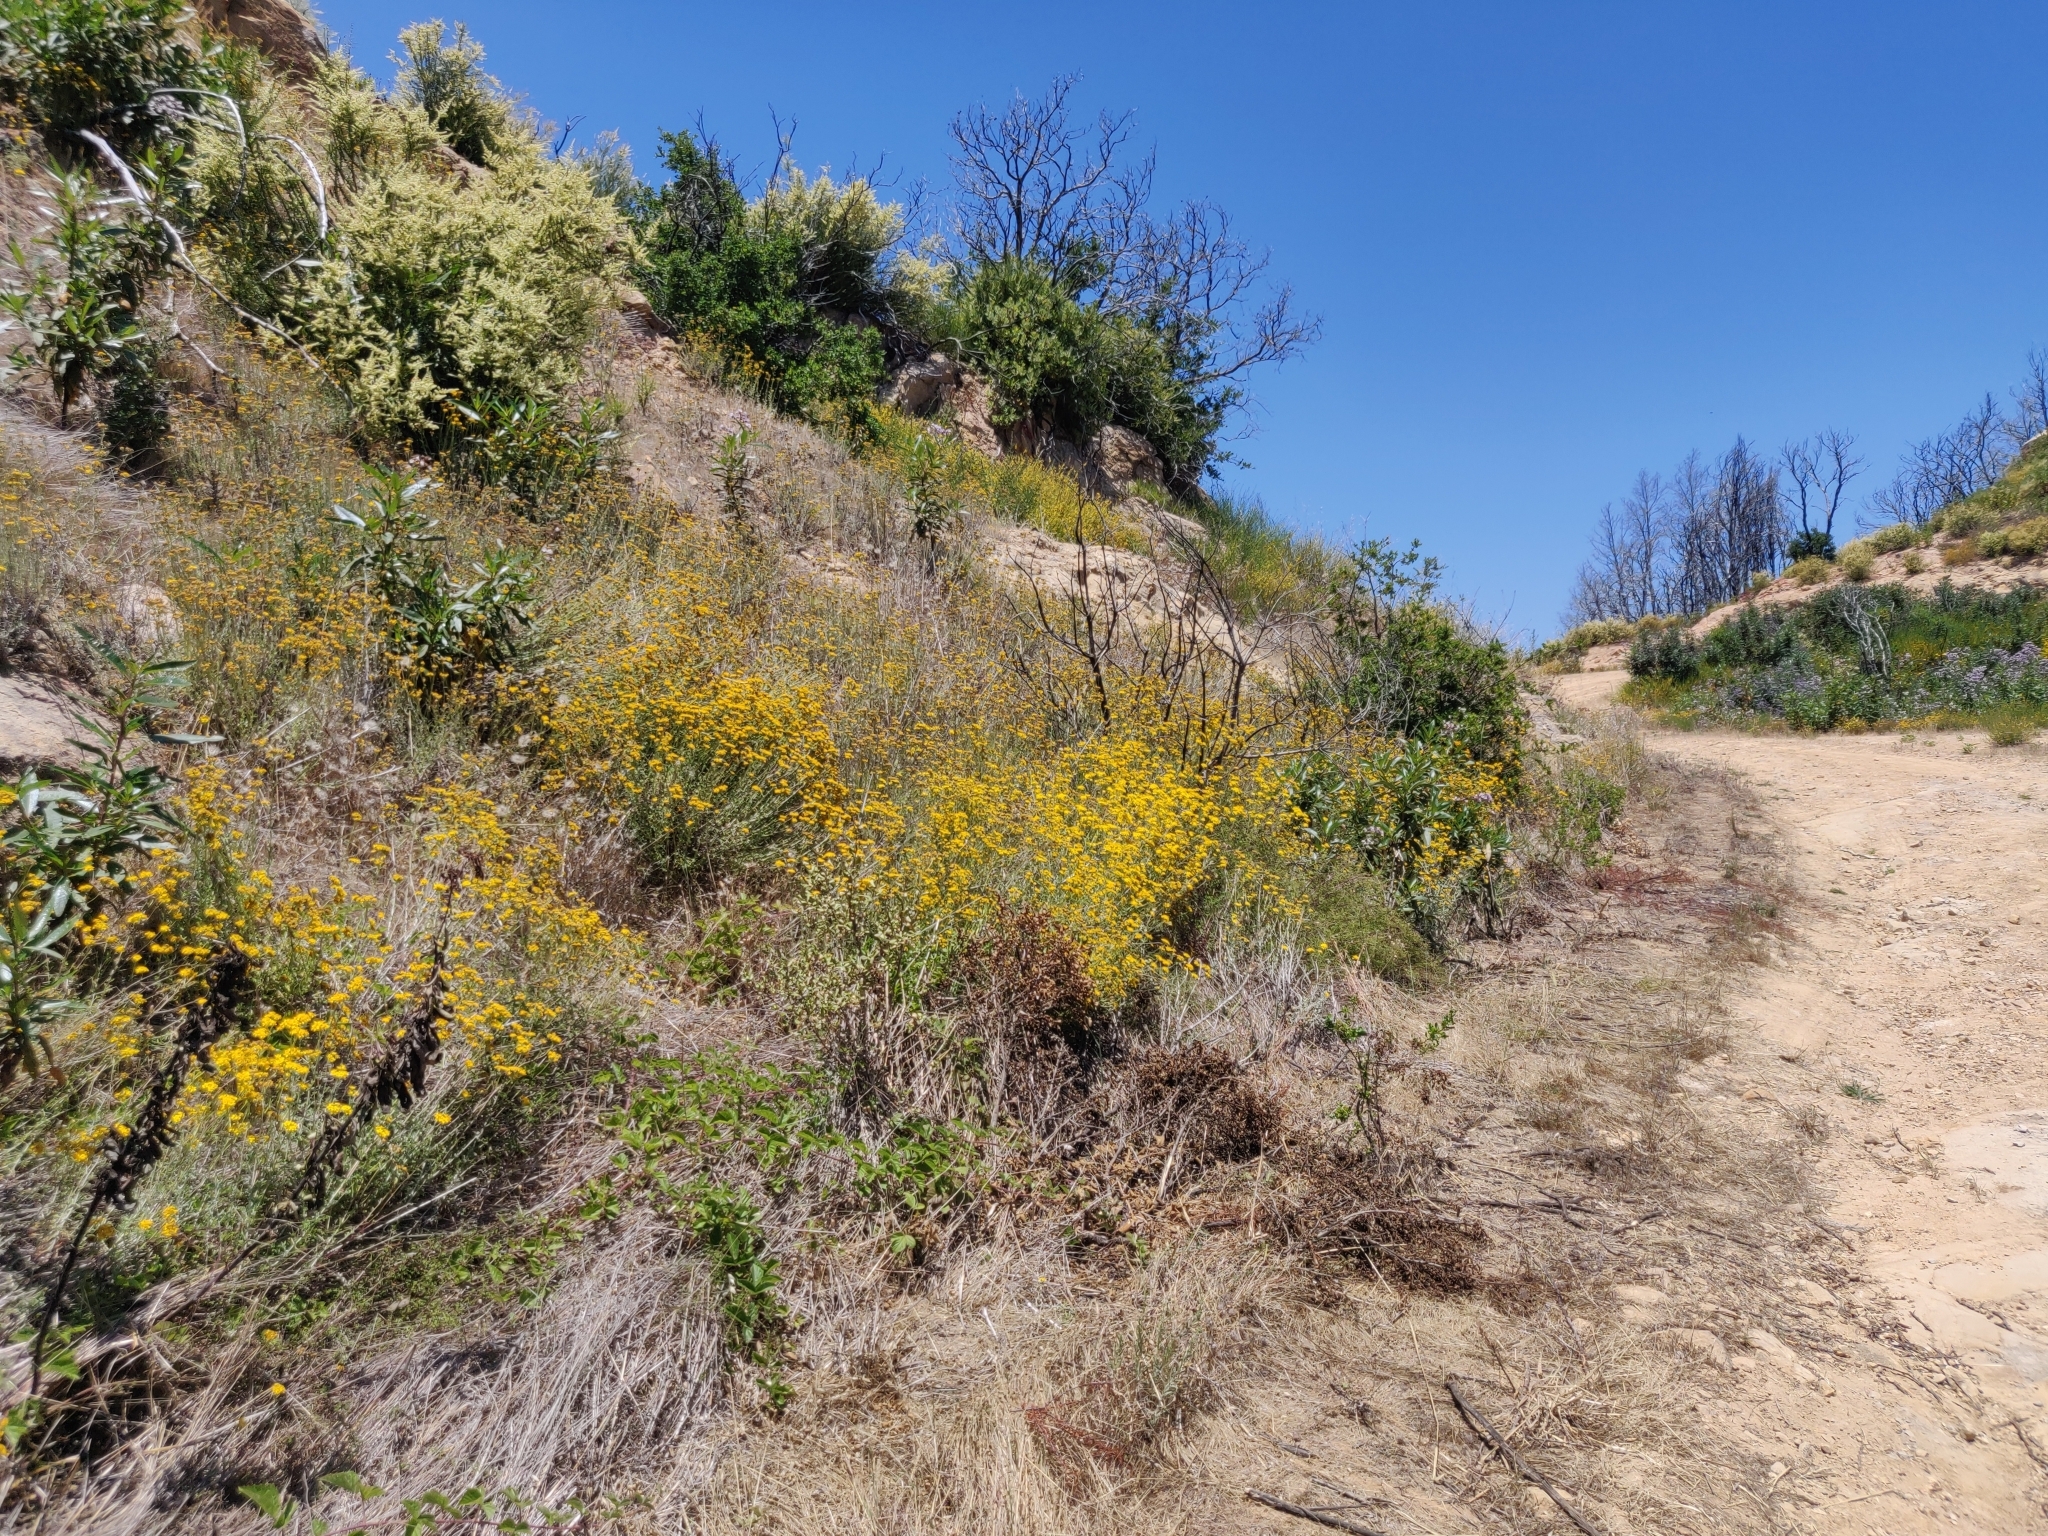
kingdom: Plantae
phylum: Tracheophyta
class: Magnoliopsida
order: Asterales
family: Asteraceae
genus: Eriophyllum
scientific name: Eriophyllum confertiflorum
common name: Golden-yarrow
